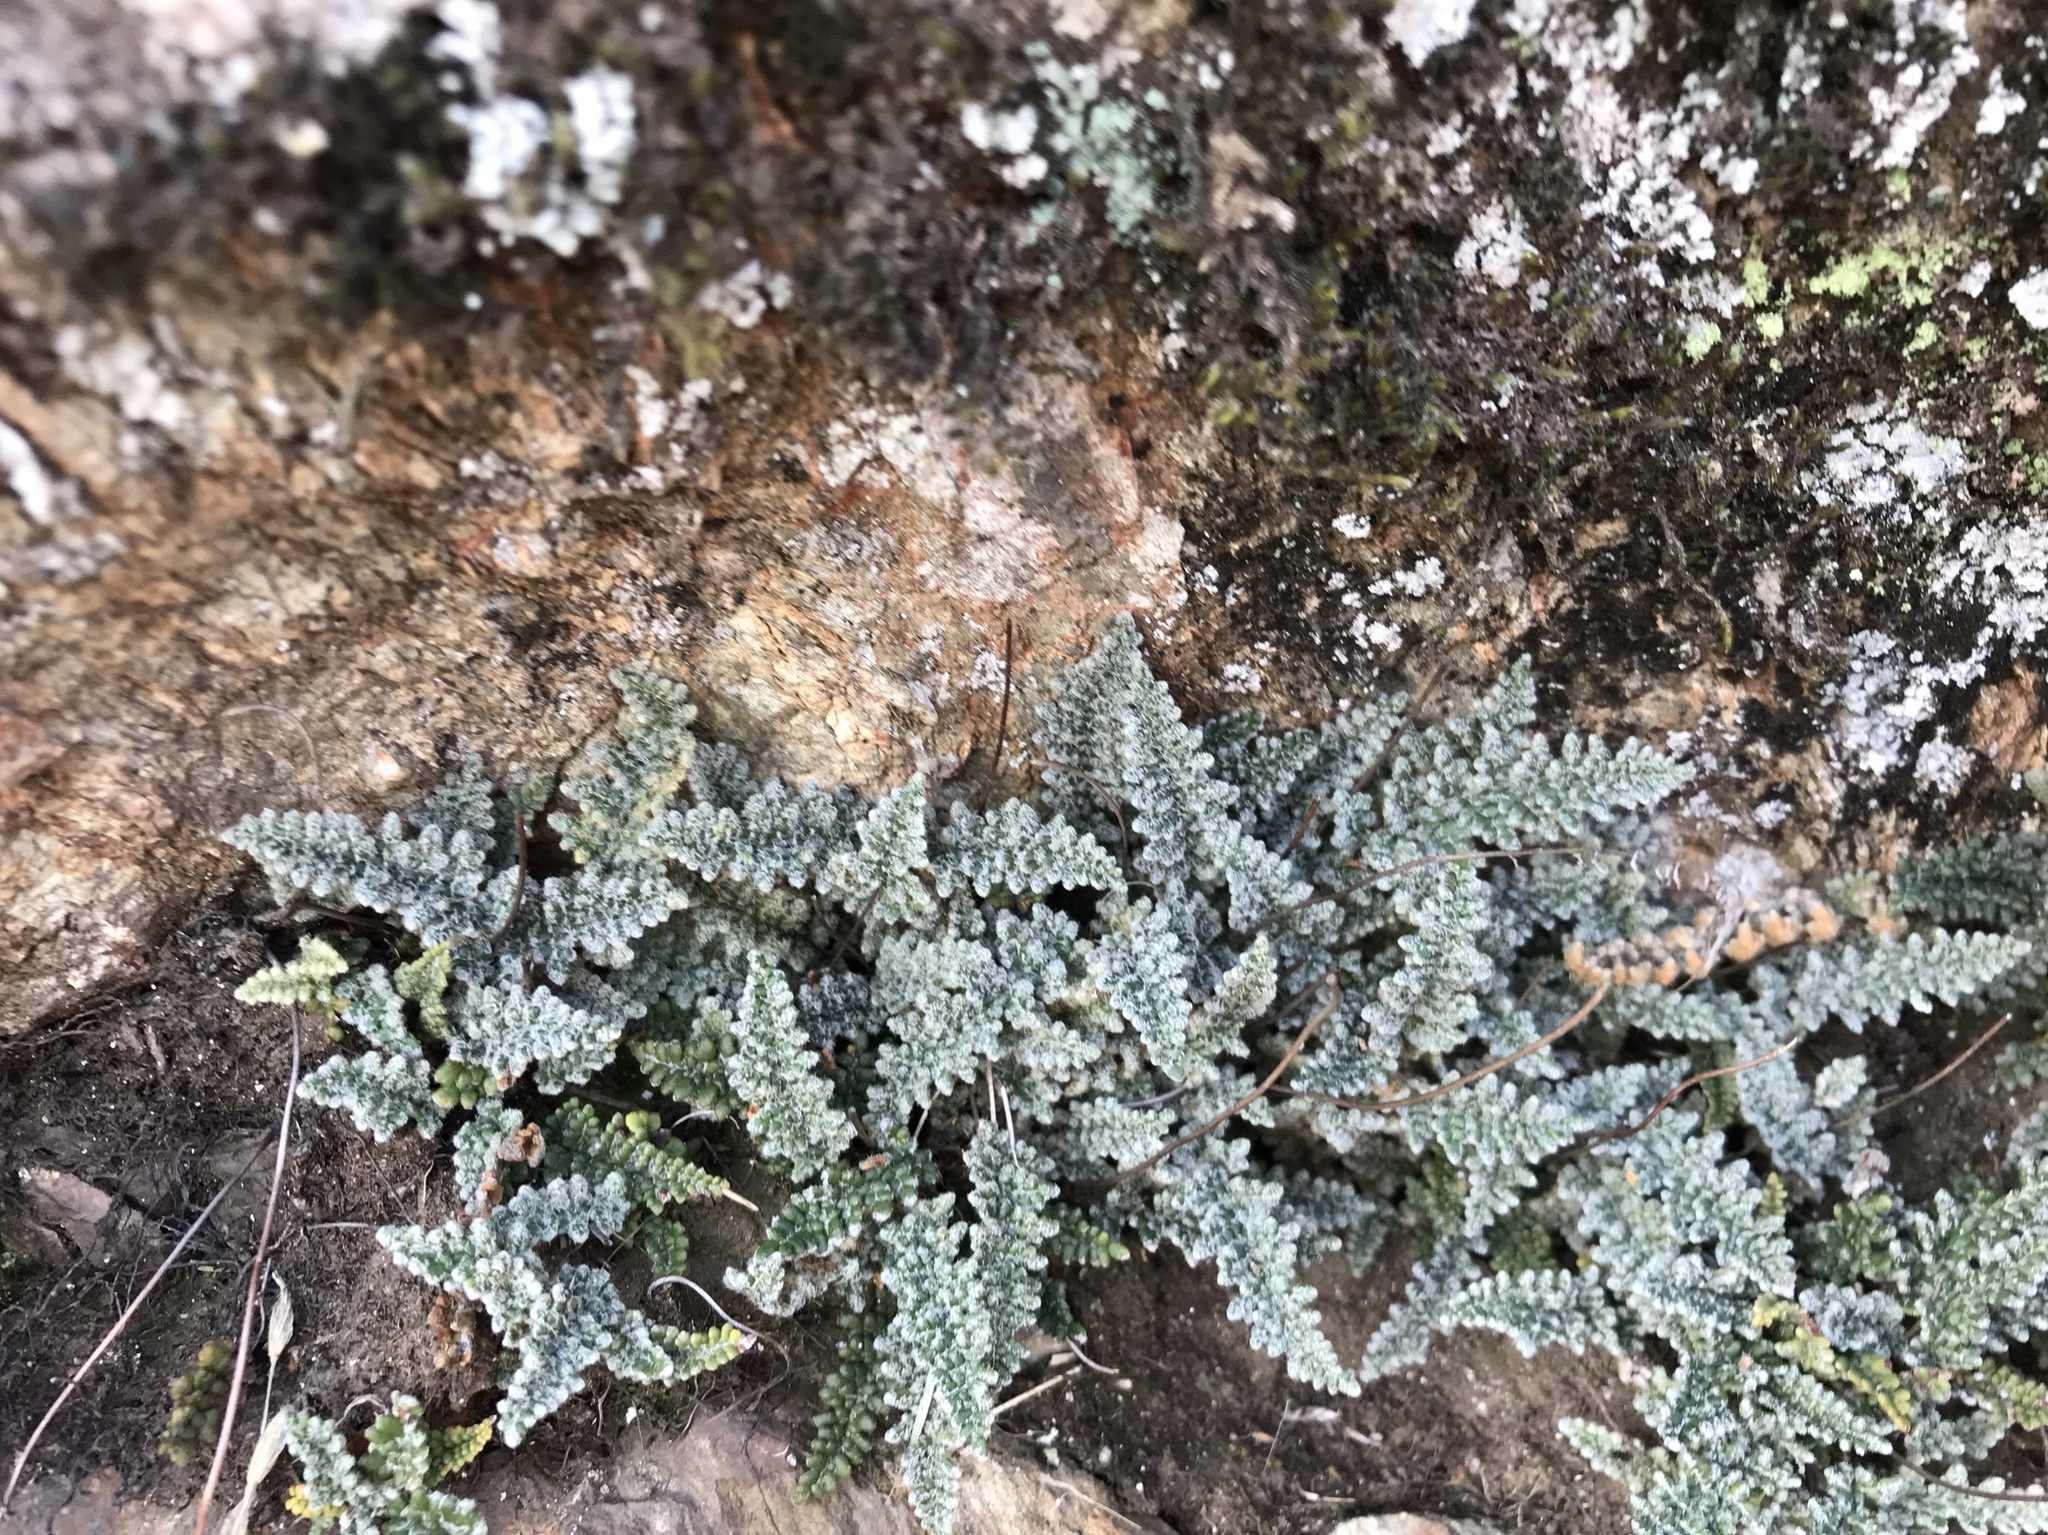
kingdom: Plantae
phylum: Tracheophyta
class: Polypodiopsida
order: Polypodiales
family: Pteridaceae
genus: Myriopteris
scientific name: Myriopteris gracillima
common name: Lace fern
